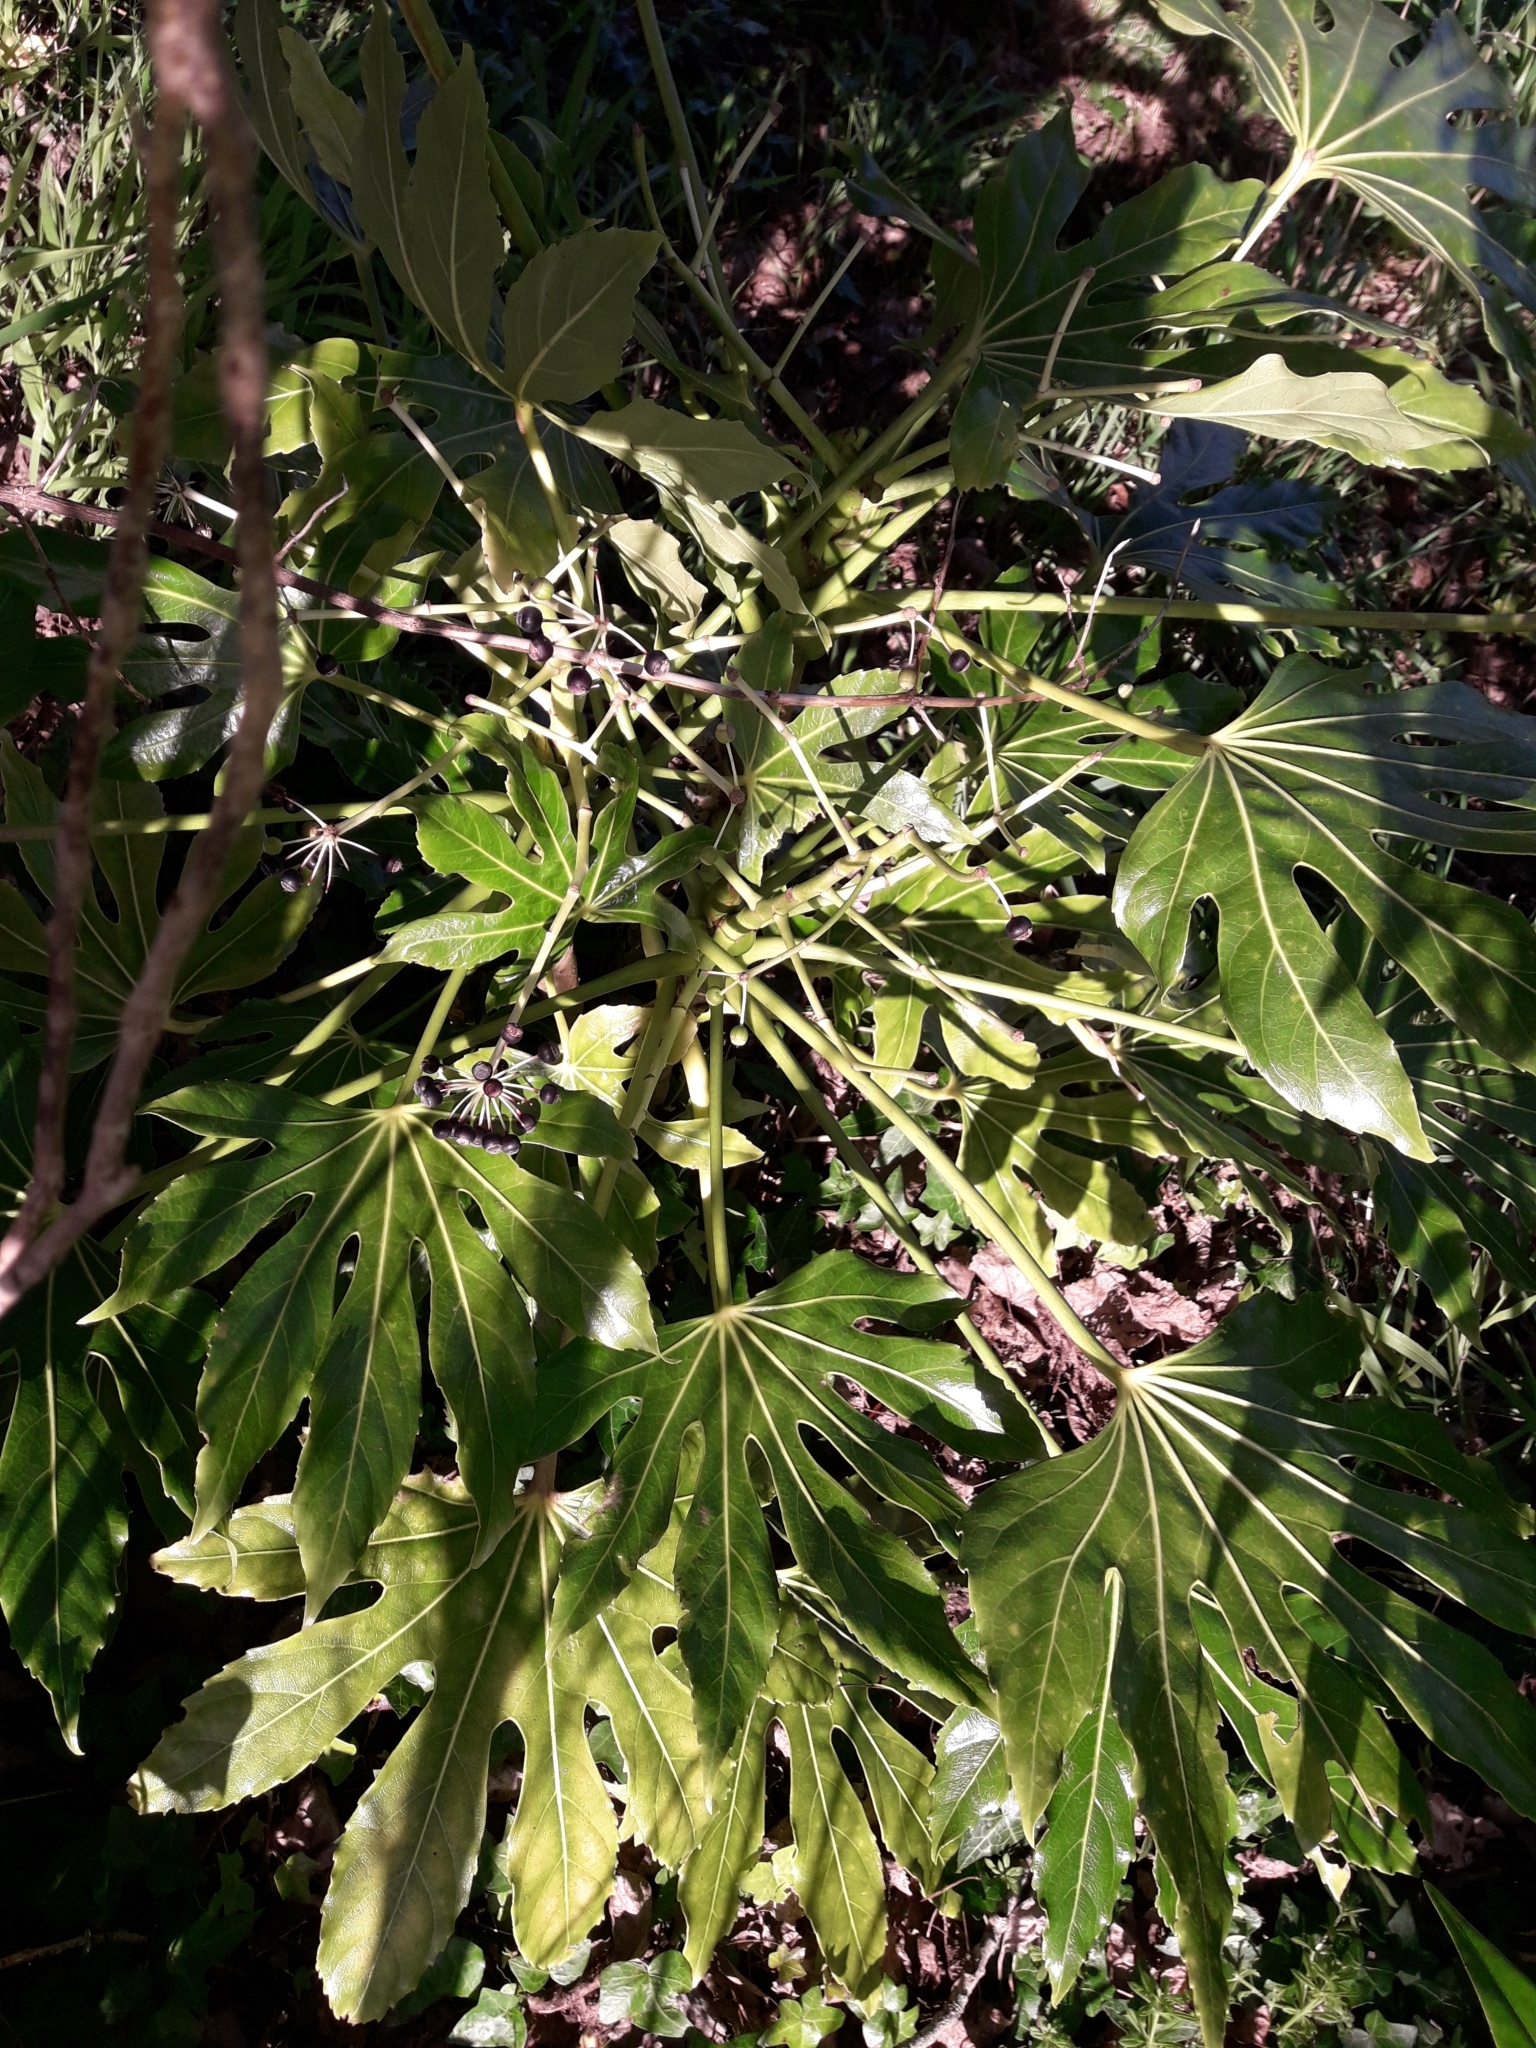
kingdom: Plantae
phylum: Tracheophyta
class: Magnoliopsida
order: Apiales
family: Araliaceae
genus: Fatsia
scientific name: Fatsia japonica
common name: Fatsia
